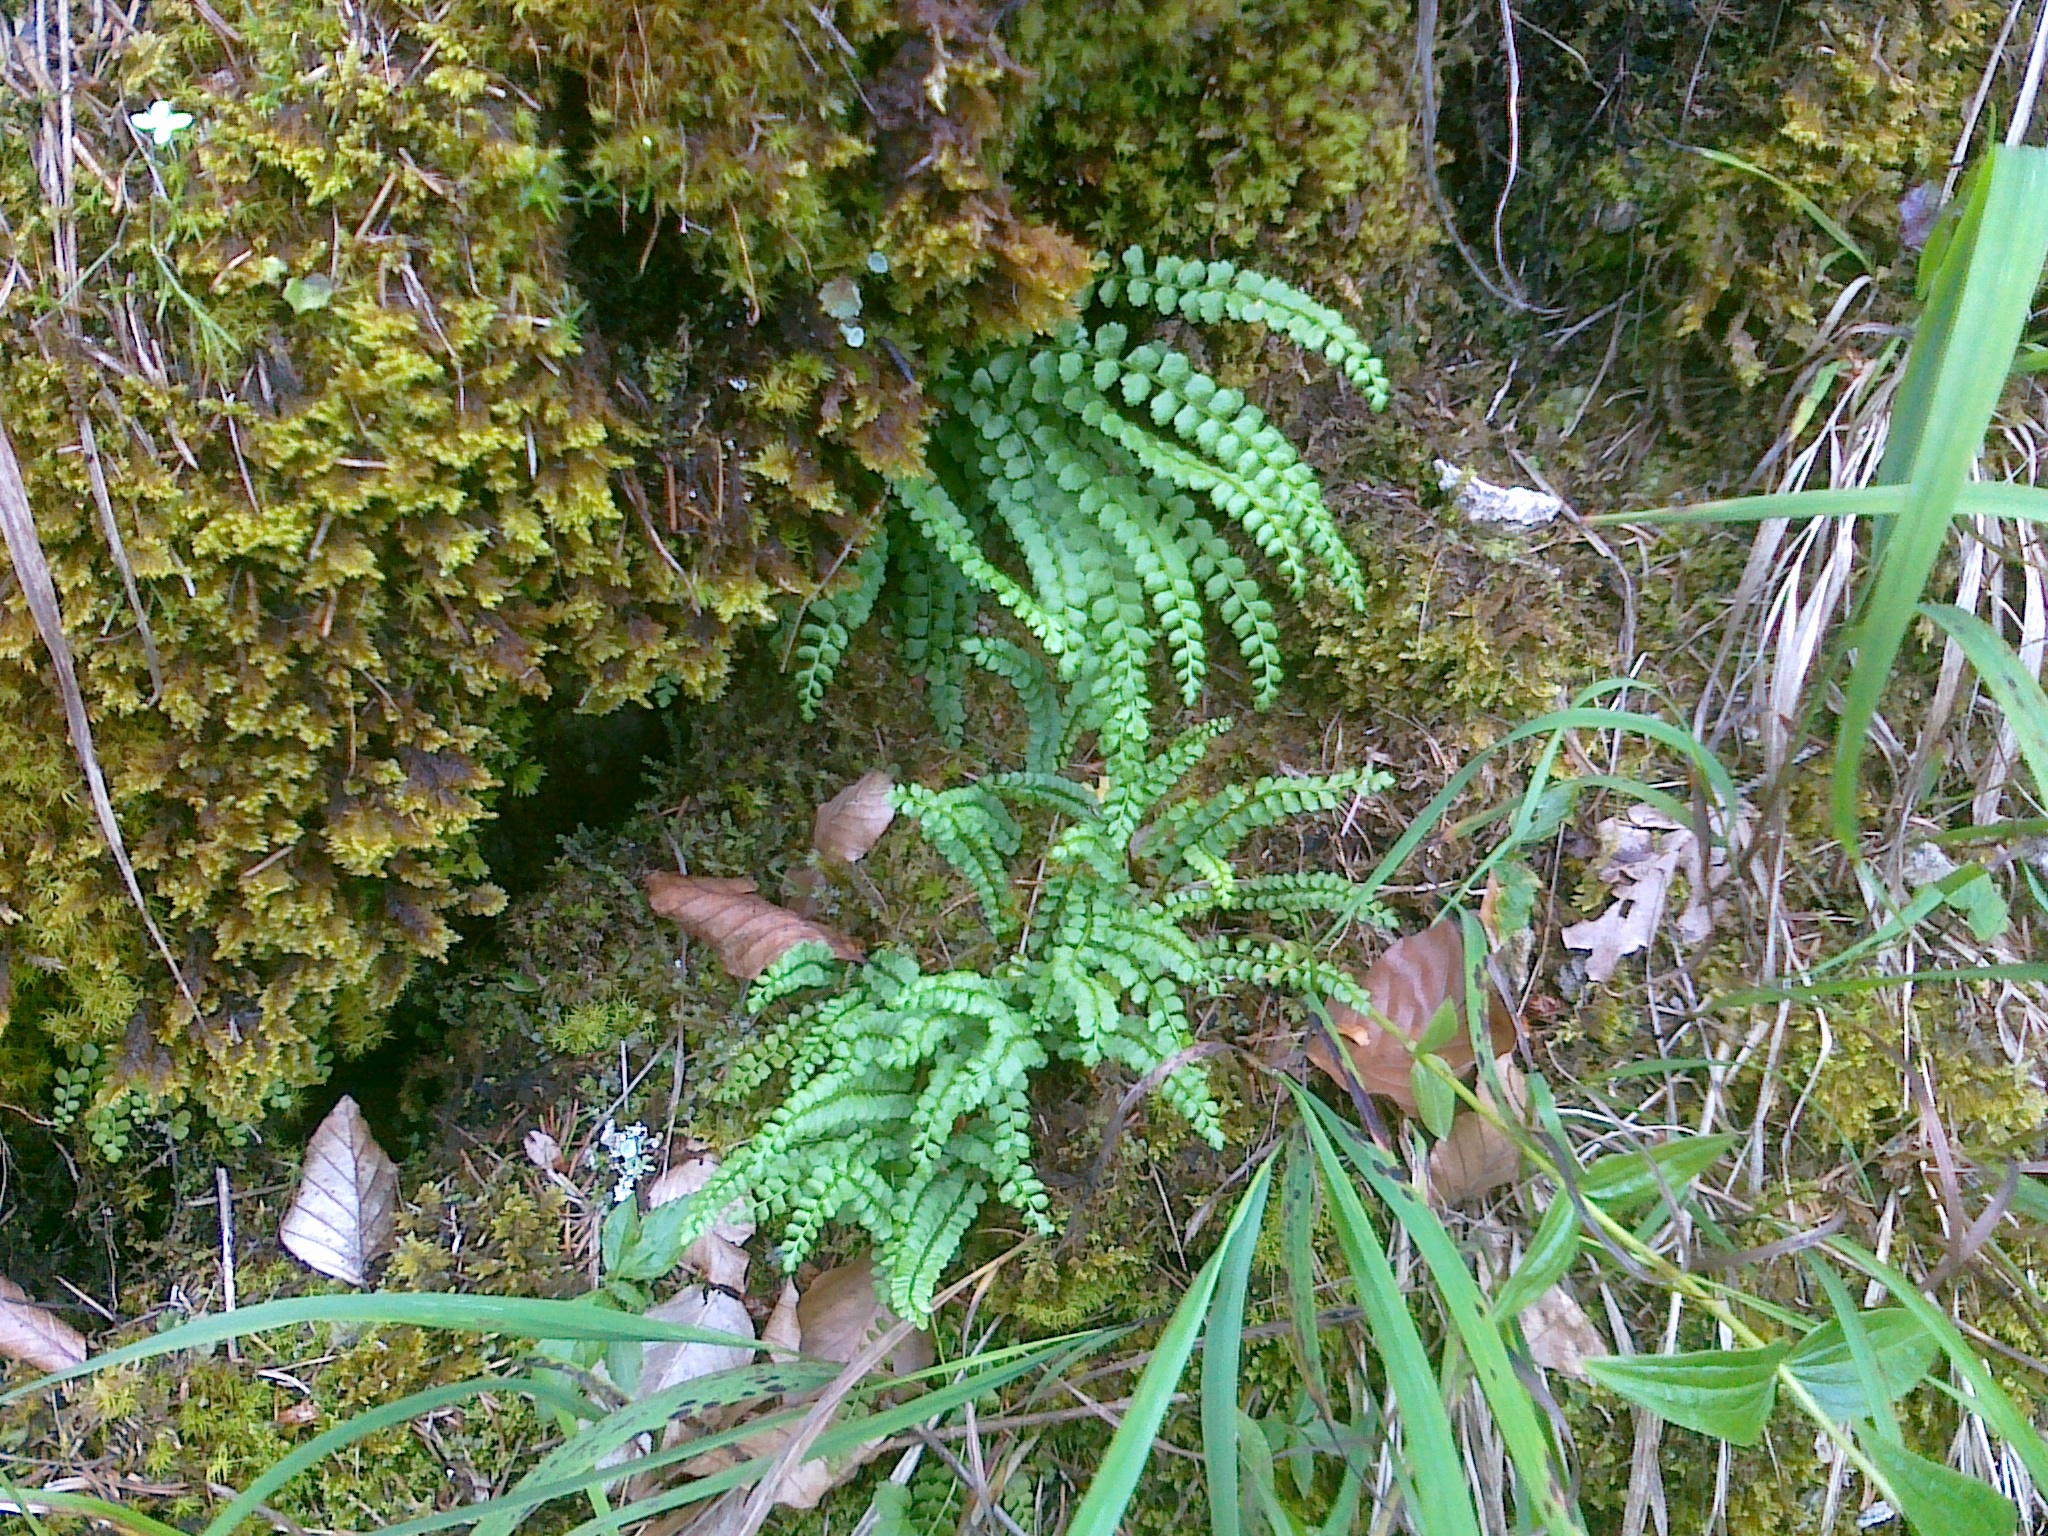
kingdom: Plantae
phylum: Tracheophyta
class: Polypodiopsida
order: Polypodiales
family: Aspleniaceae
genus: Asplenium
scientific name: Asplenium viride
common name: Green spleenwort
